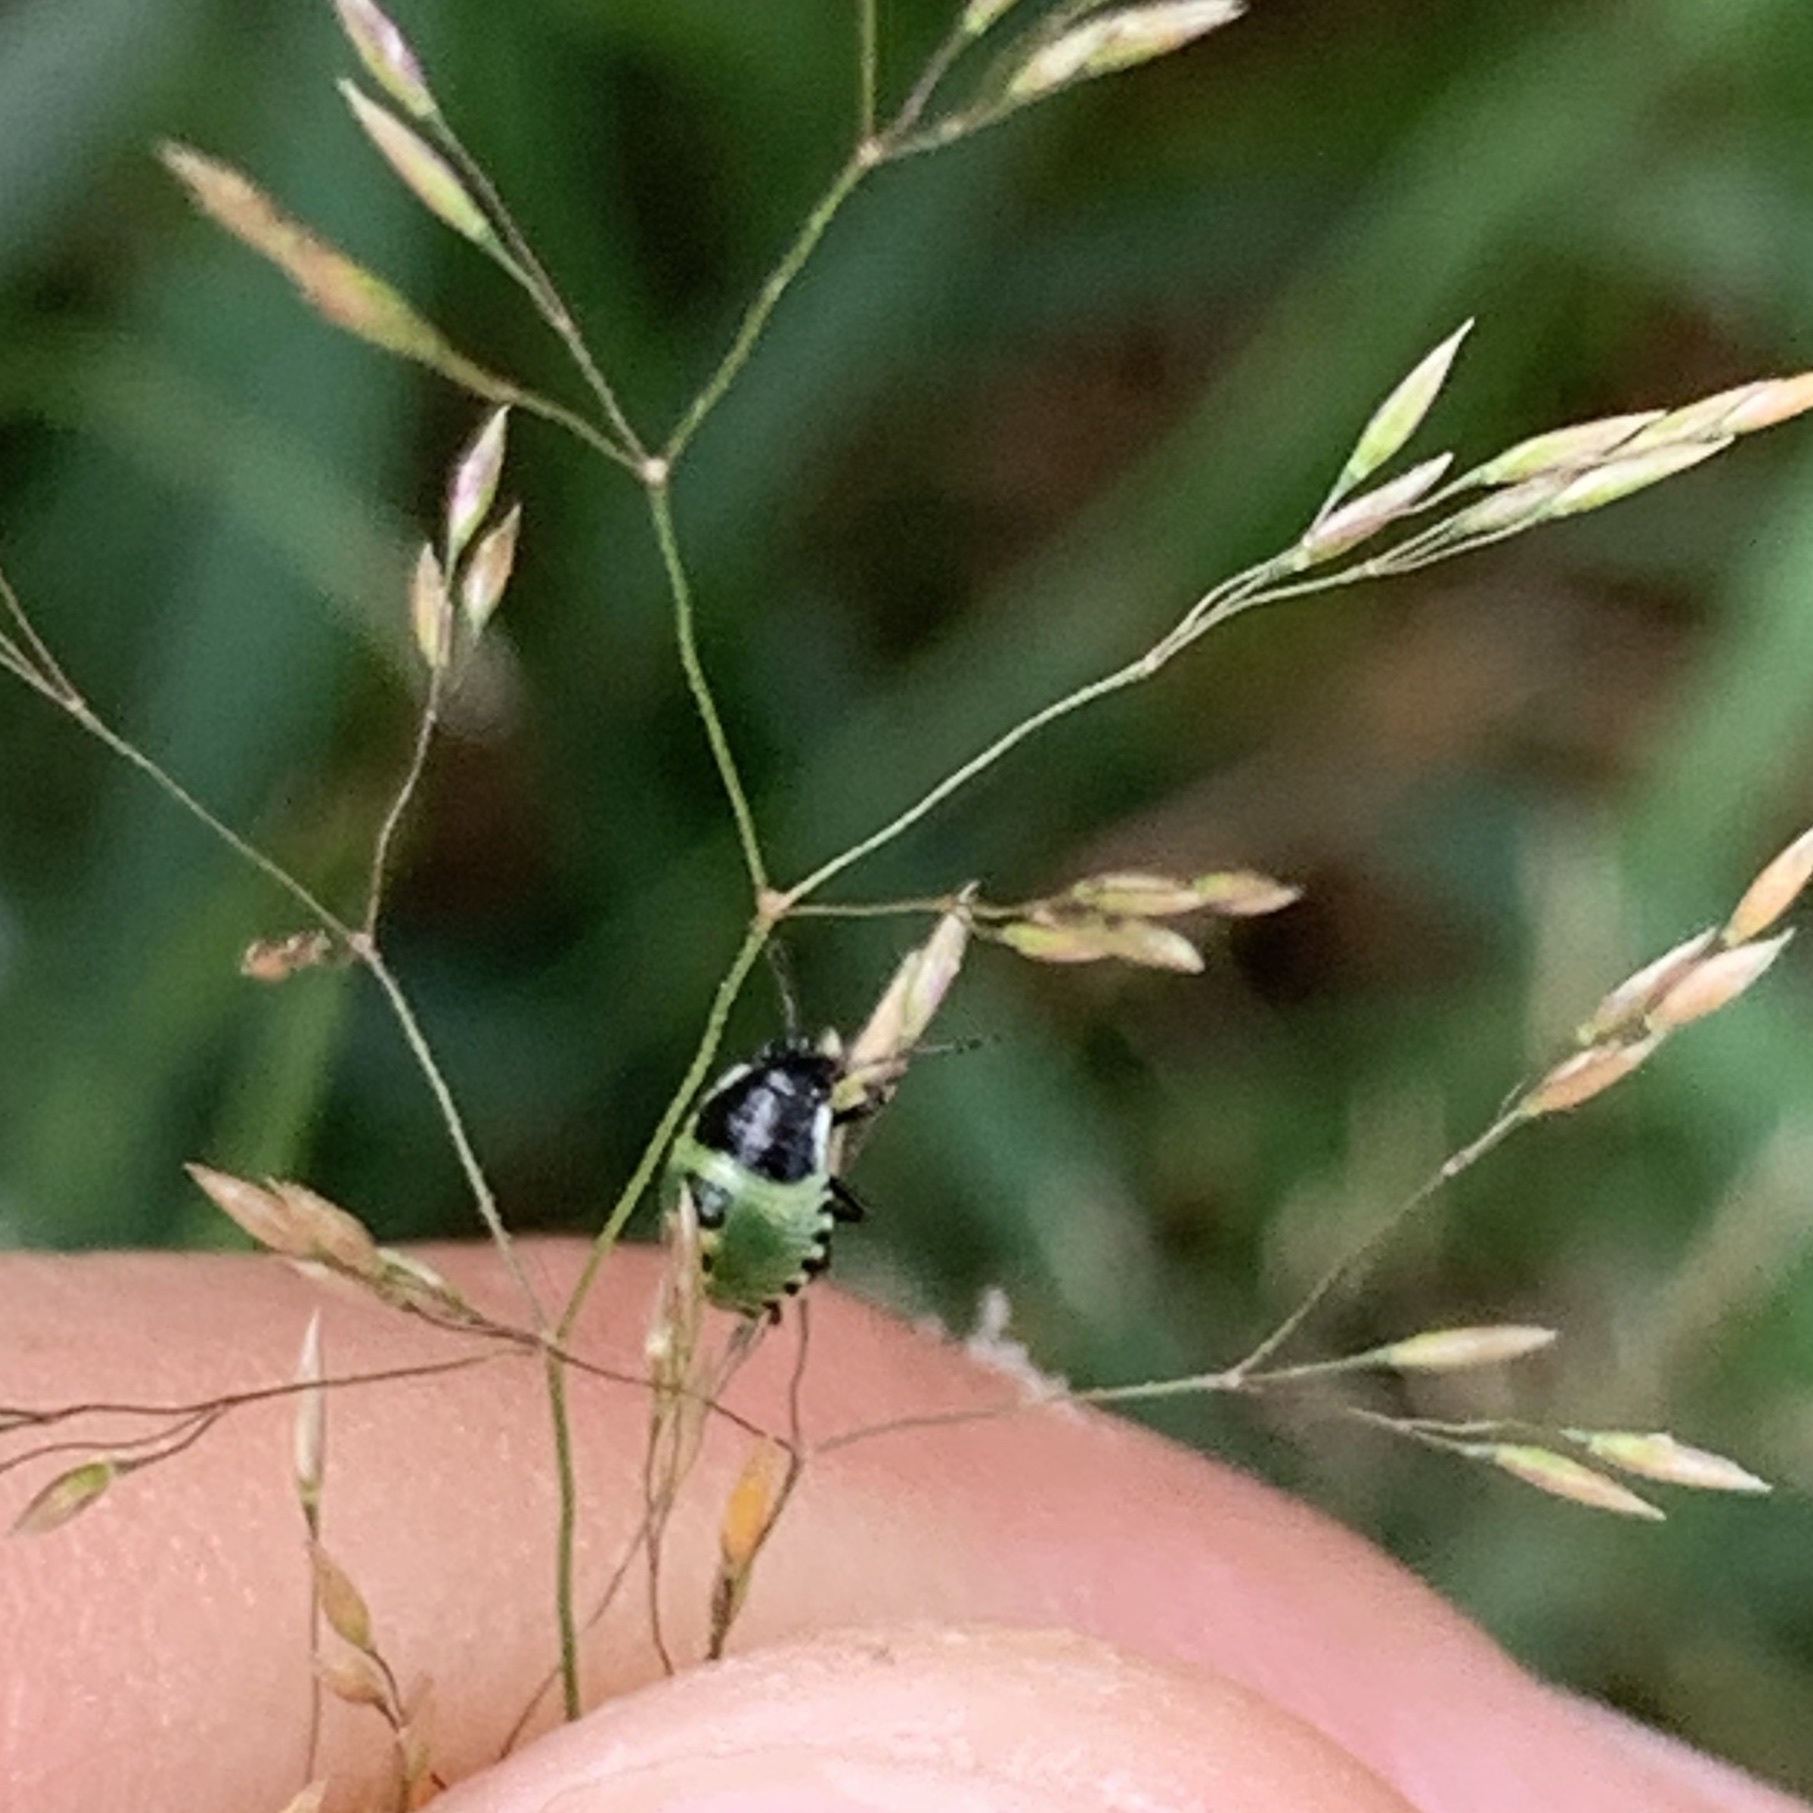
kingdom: Animalia
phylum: Arthropoda
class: Insecta
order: Hemiptera
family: Pentatomidae
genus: Palomena
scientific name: Palomena prasina
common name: Green shieldbug
